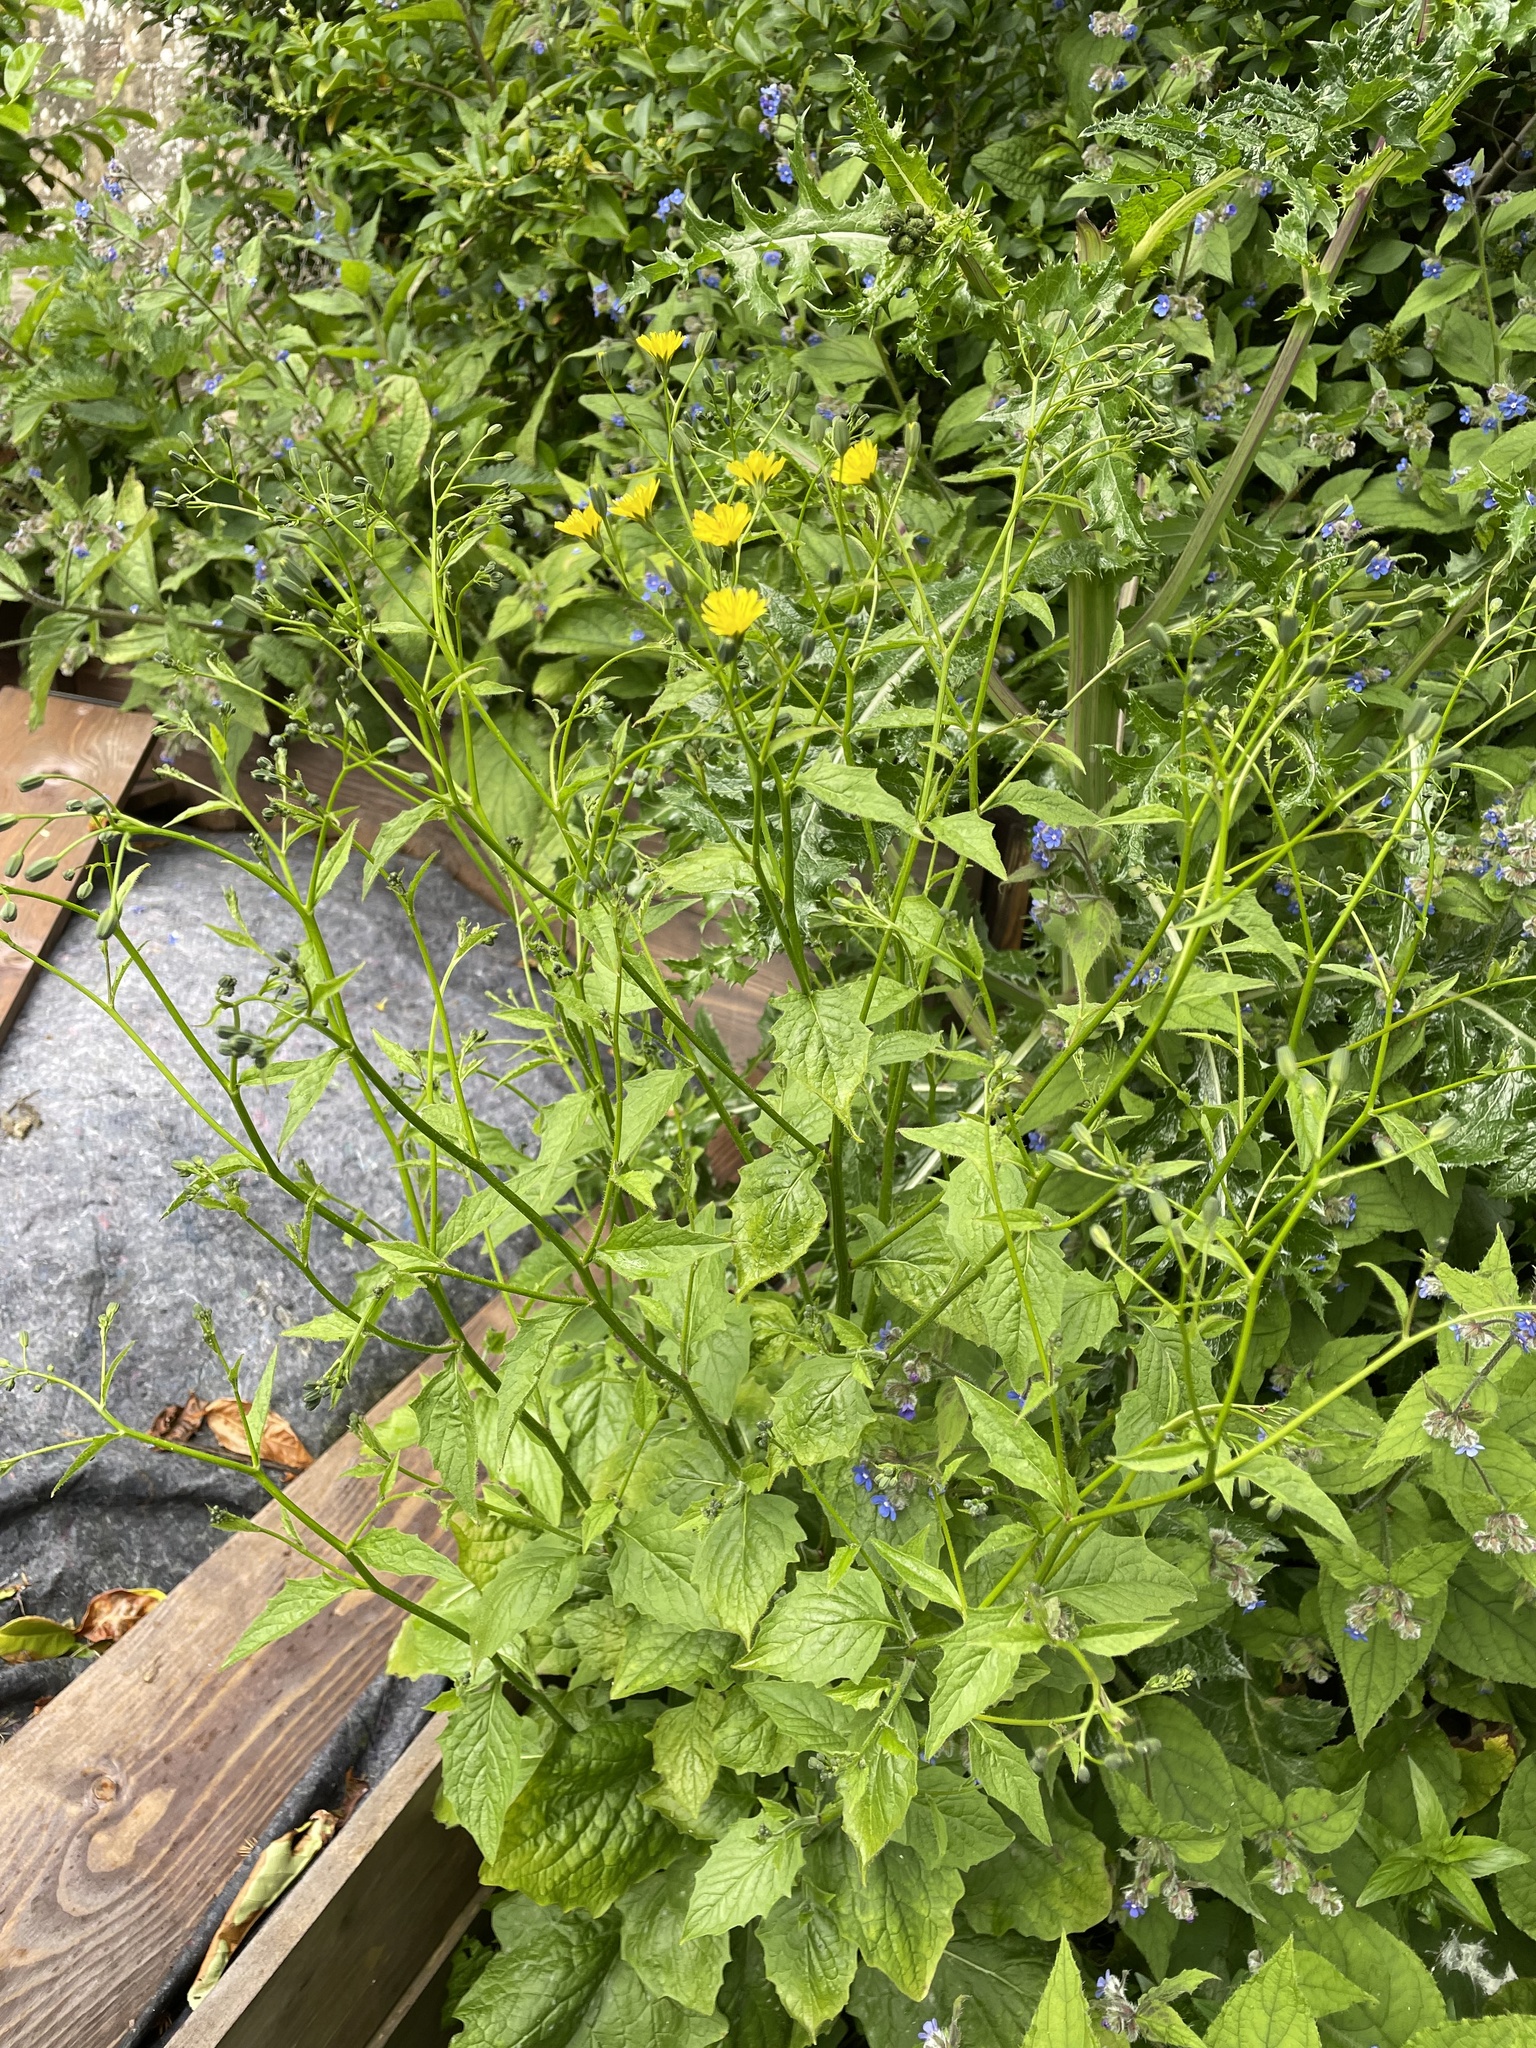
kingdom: Plantae
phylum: Tracheophyta
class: Magnoliopsida
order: Asterales
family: Asteraceae
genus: Lapsana
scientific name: Lapsana communis
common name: Nipplewort
